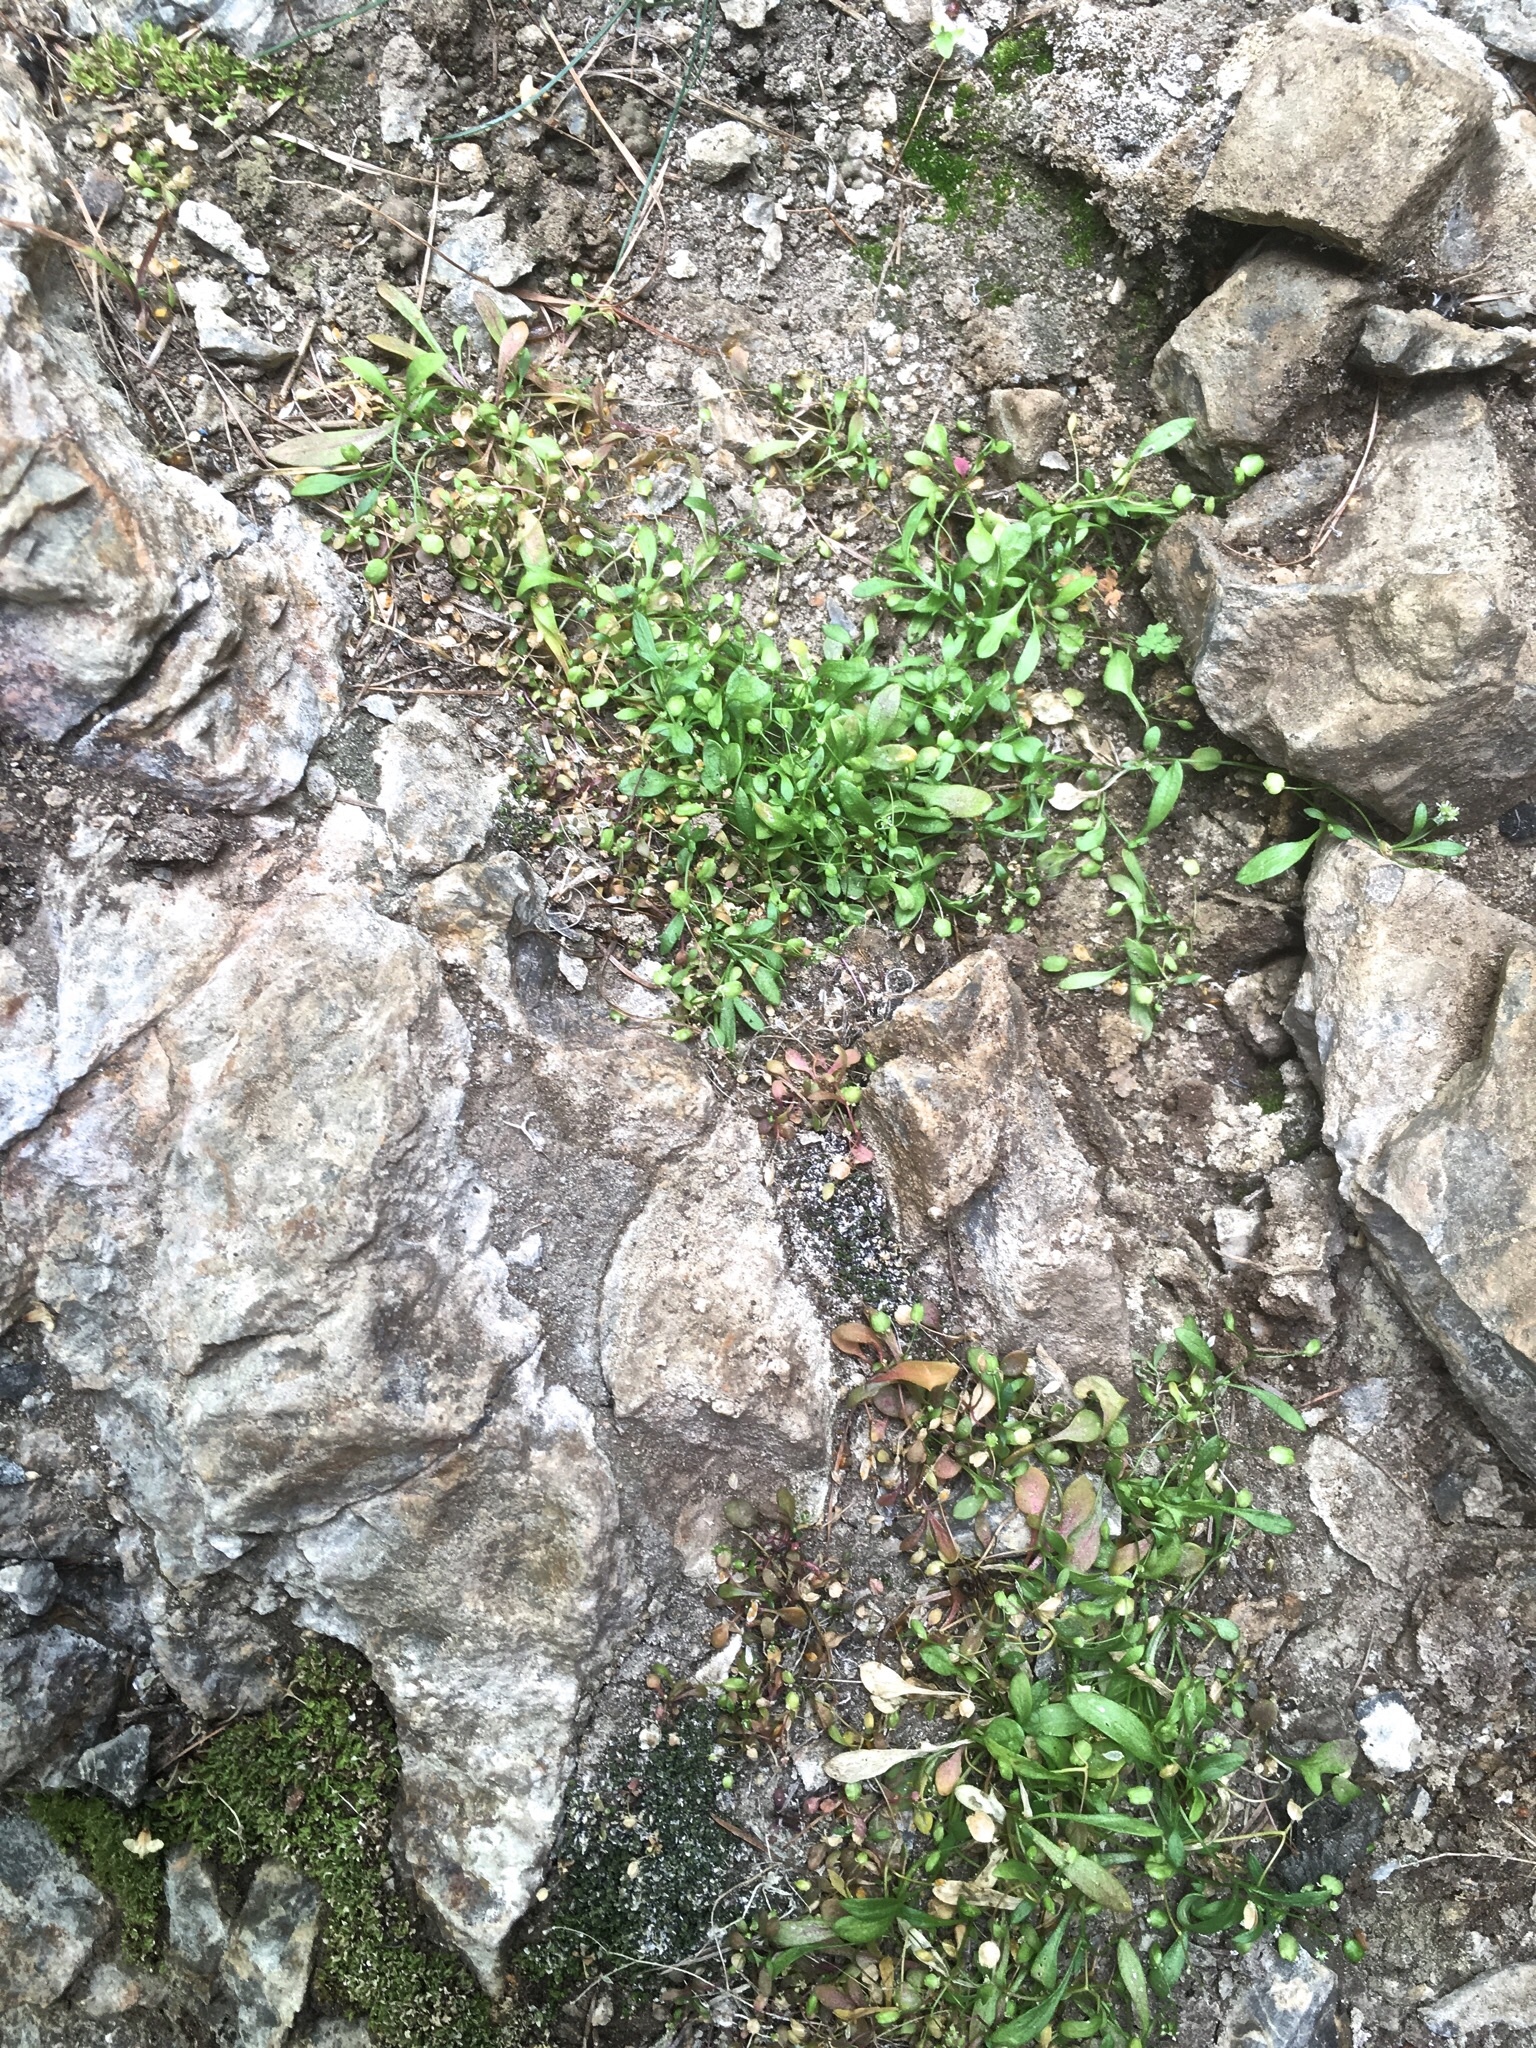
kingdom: Plantae
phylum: Tracheophyta
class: Magnoliopsida
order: Brassicales
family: Brassicaceae
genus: Hornungia
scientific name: Hornungia procumbens
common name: Oval purse
